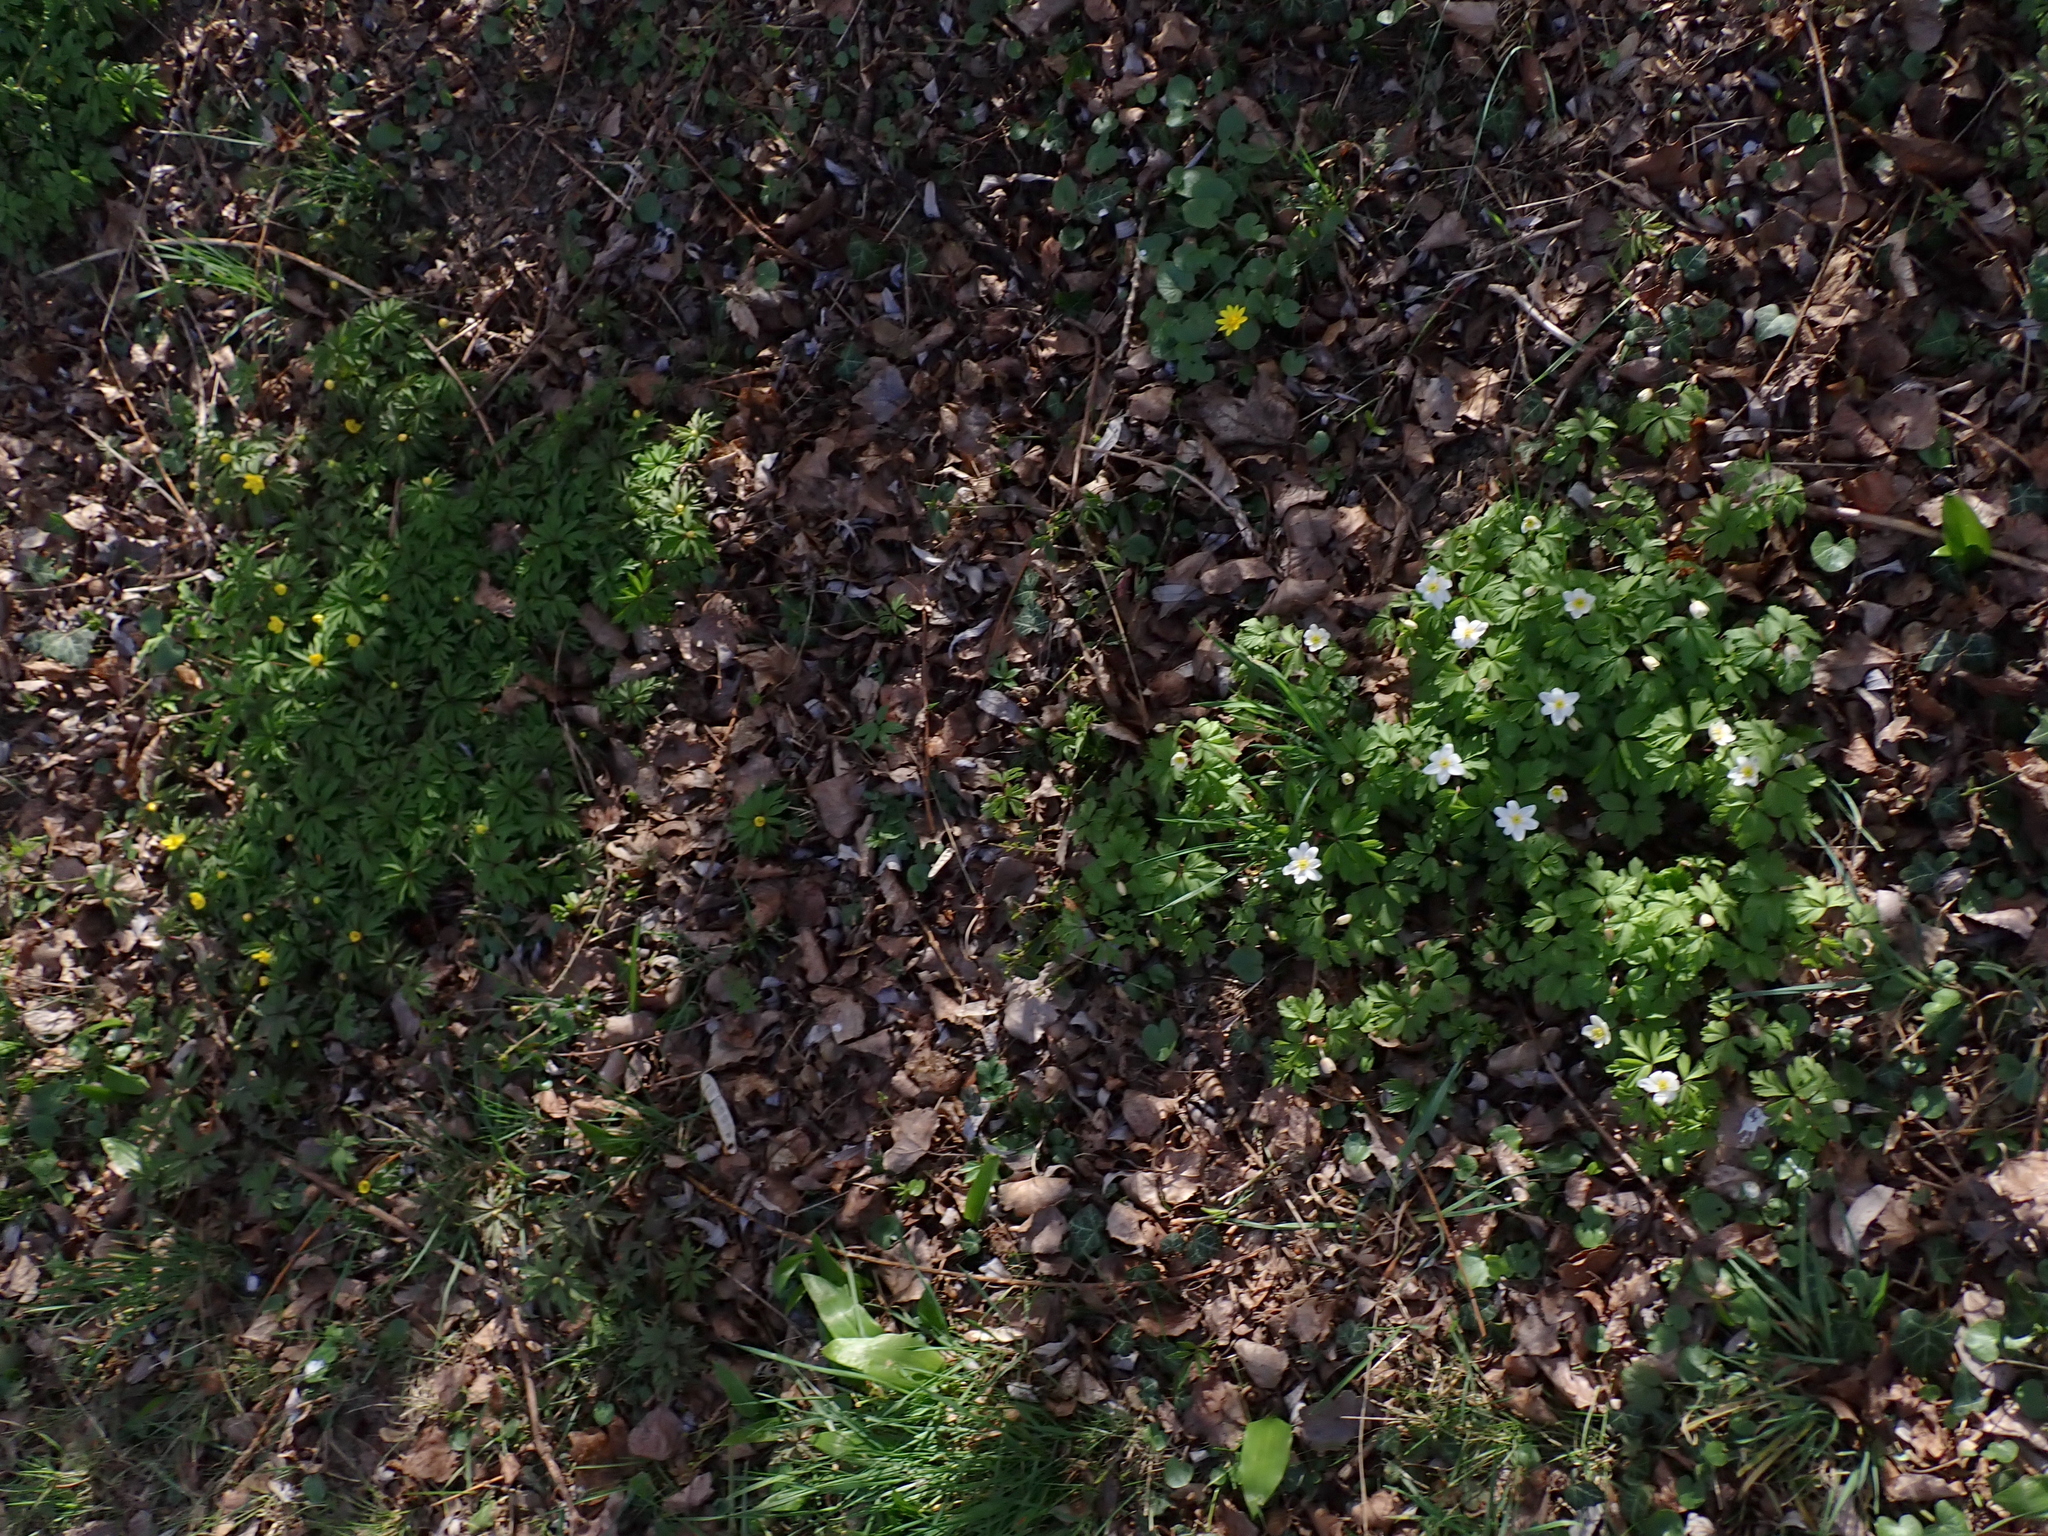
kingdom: Plantae
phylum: Tracheophyta
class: Magnoliopsida
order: Ranunculales
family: Ranunculaceae
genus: Anemone
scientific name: Anemone nemorosa
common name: Wood anemone
